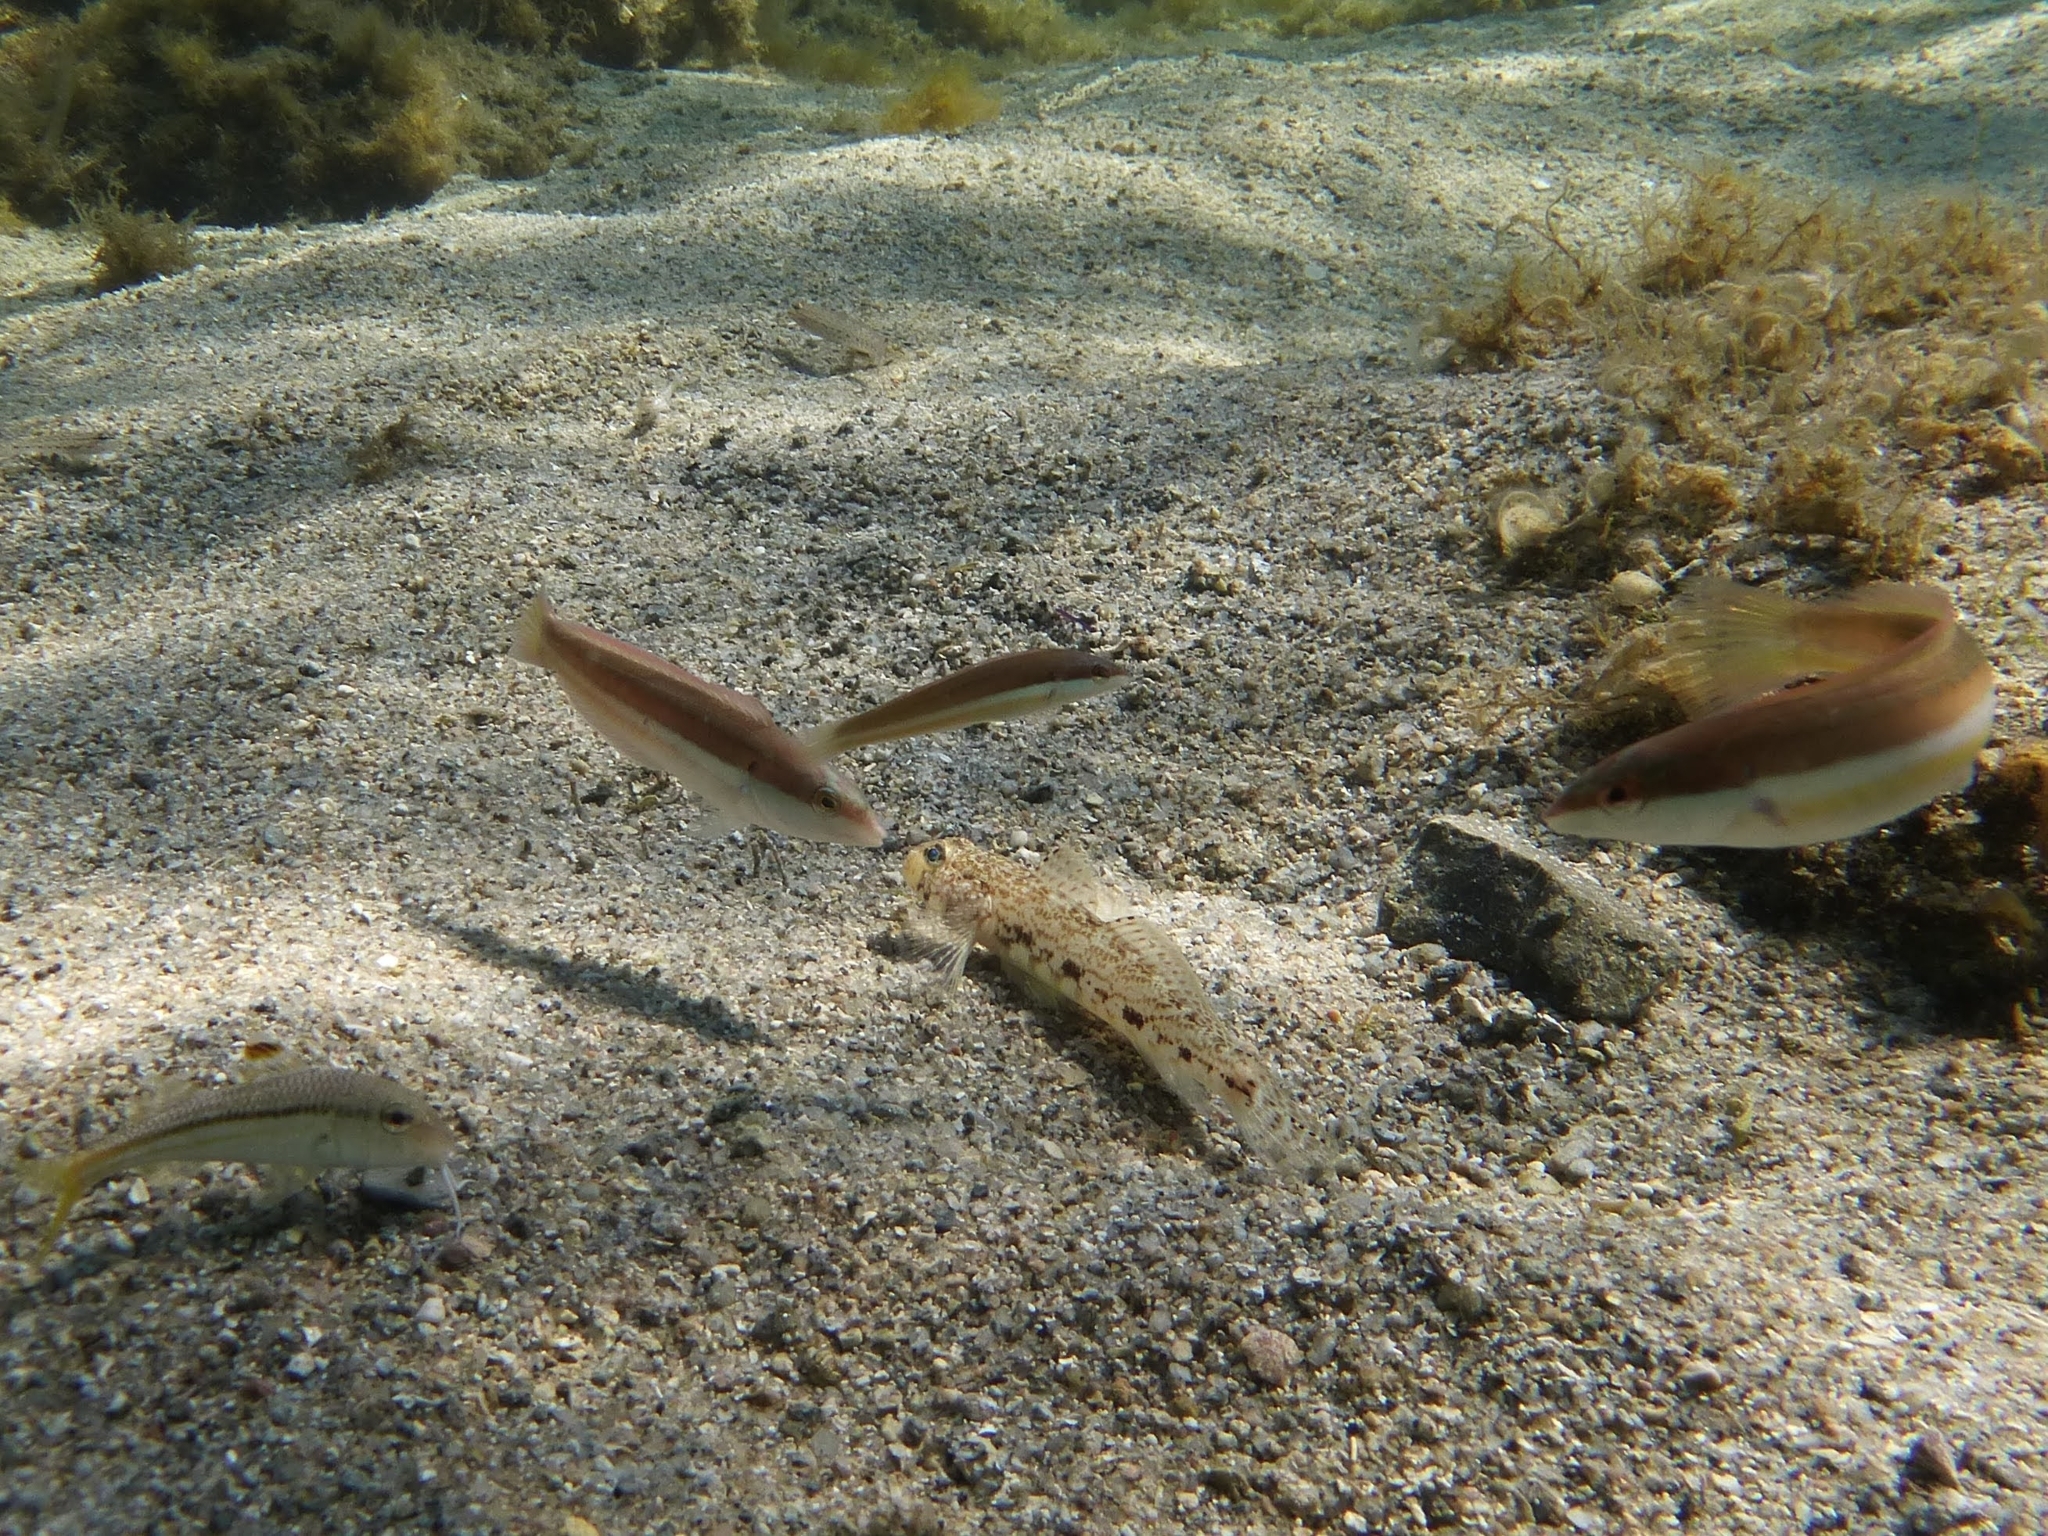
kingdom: Animalia
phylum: Chordata
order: Perciformes
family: Labridae
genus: Coris
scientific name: Coris julis
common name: Rainbow wrasse
